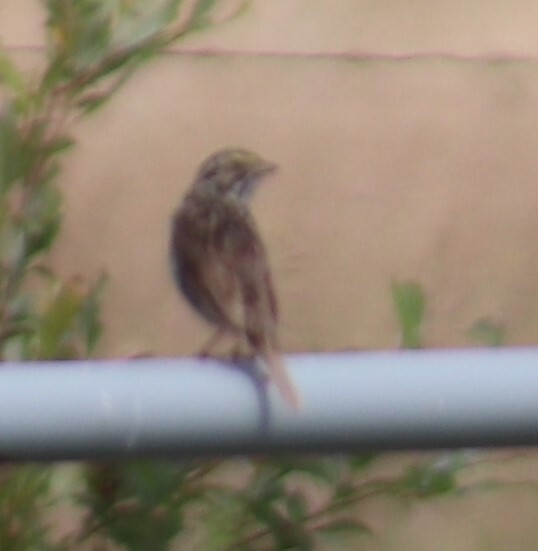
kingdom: Animalia
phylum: Chordata
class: Aves
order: Passeriformes
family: Passerellidae
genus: Passerculus
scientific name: Passerculus sandwichensis
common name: Savannah sparrow
